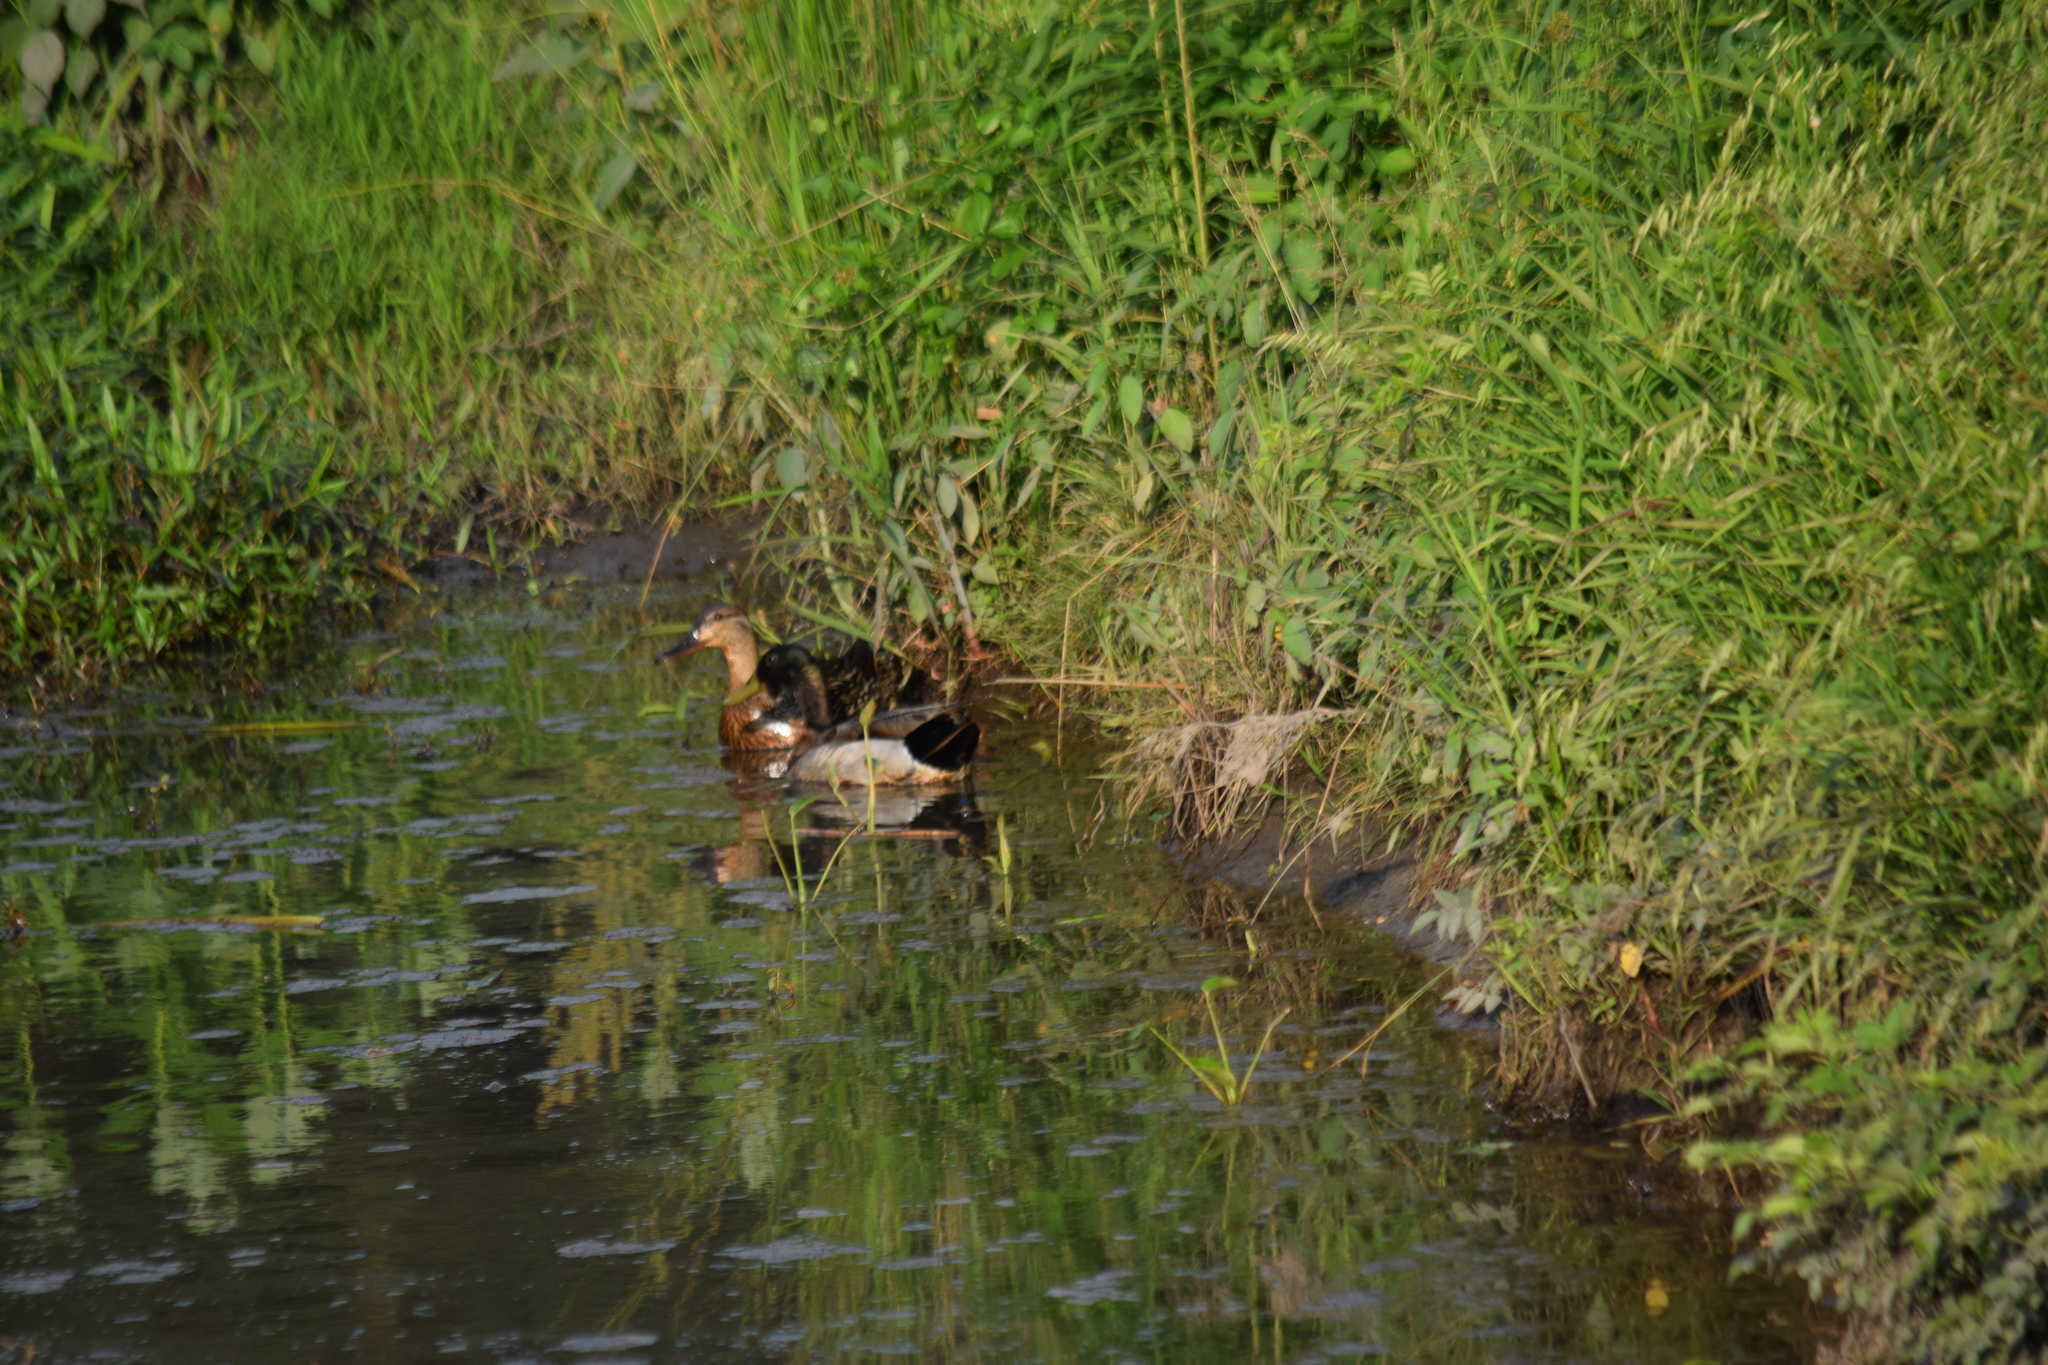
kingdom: Animalia
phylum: Chordata
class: Aves
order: Anseriformes
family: Anatidae
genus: Anas
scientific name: Anas platyrhynchos
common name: Mallard
